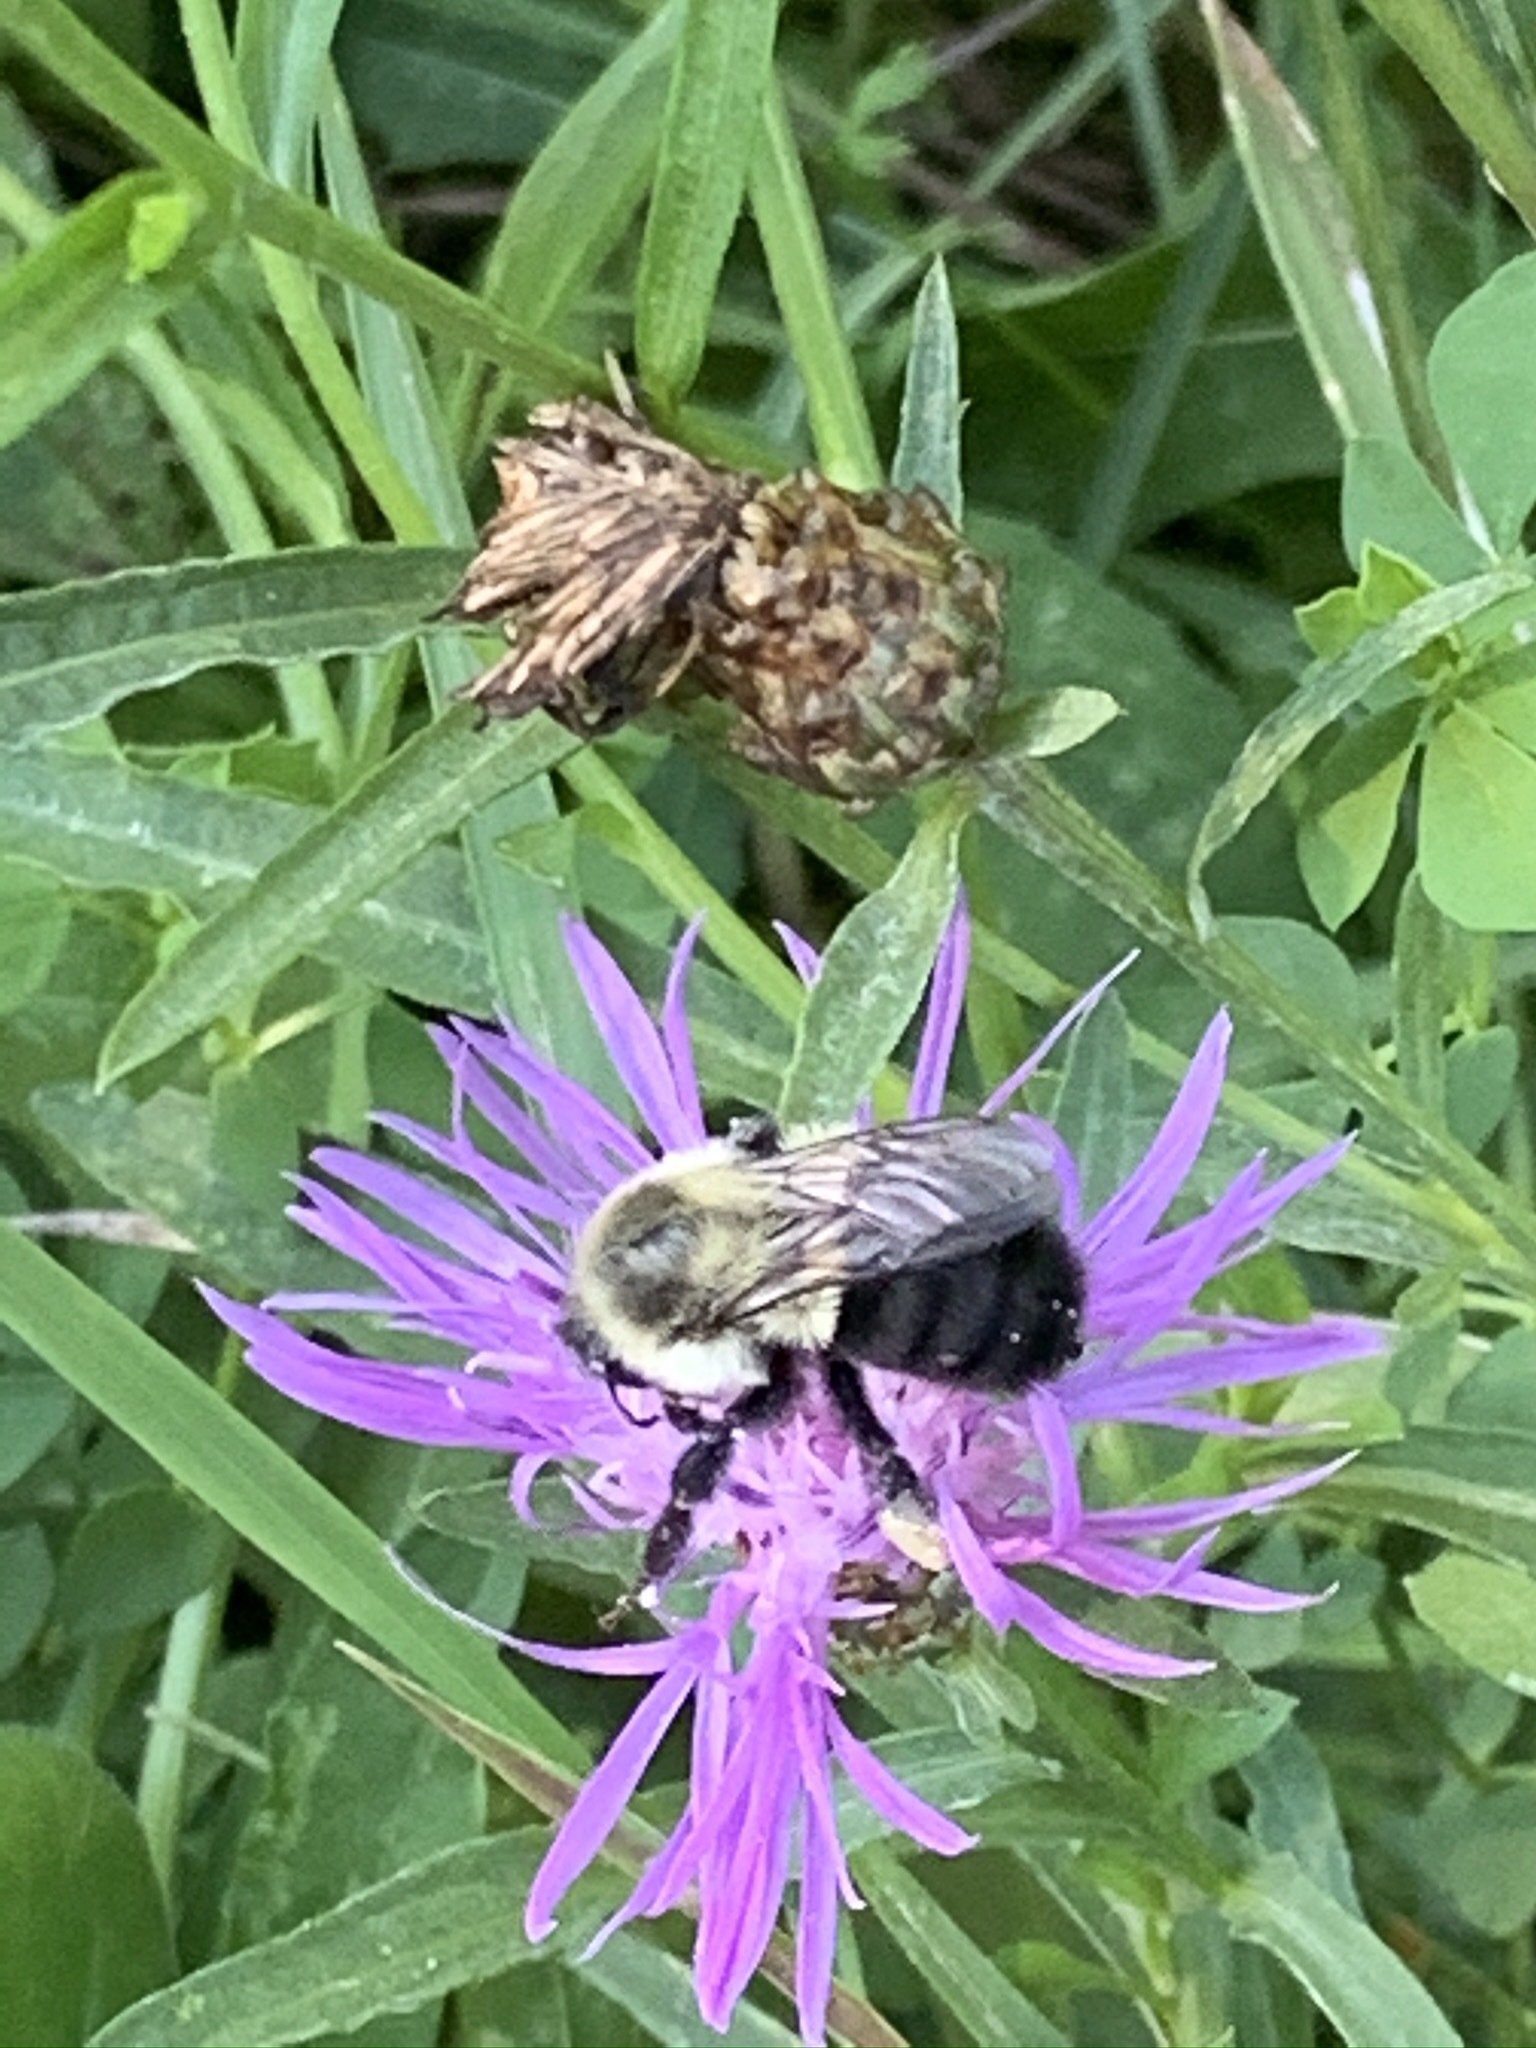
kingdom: Animalia
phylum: Arthropoda
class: Insecta
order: Hymenoptera
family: Apidae
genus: Bombus
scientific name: Bombus impatiens
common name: Common eastern bumble bee
